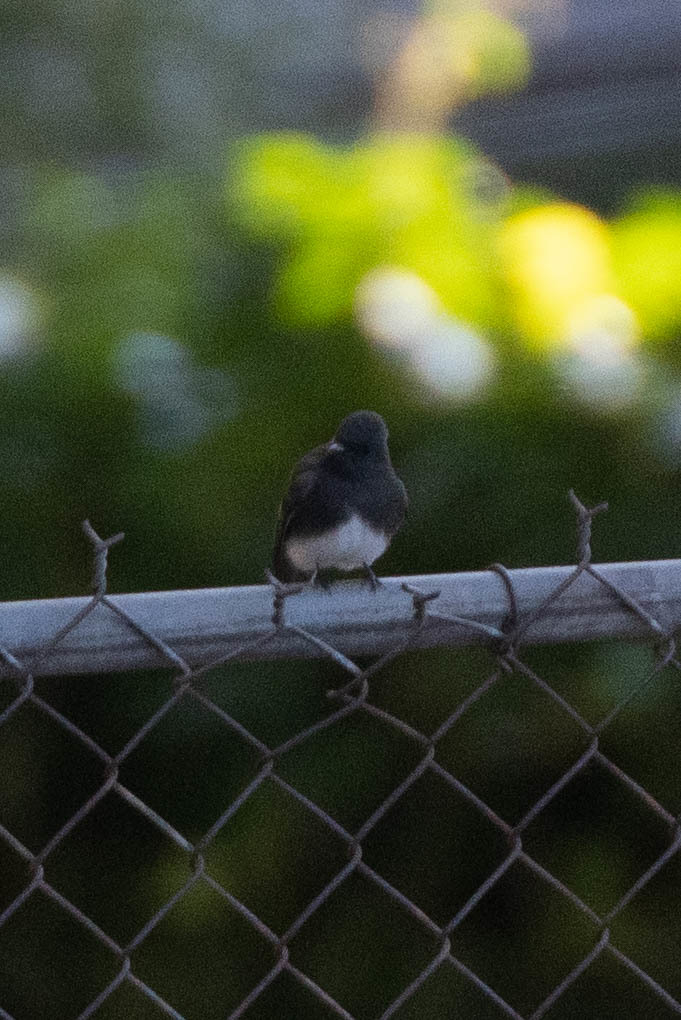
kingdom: Animalia
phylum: Chordata
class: Aves
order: Passeriformes
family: Tyrannidae
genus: Sayornis
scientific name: Sayornis nigricans
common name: Black phoebe
